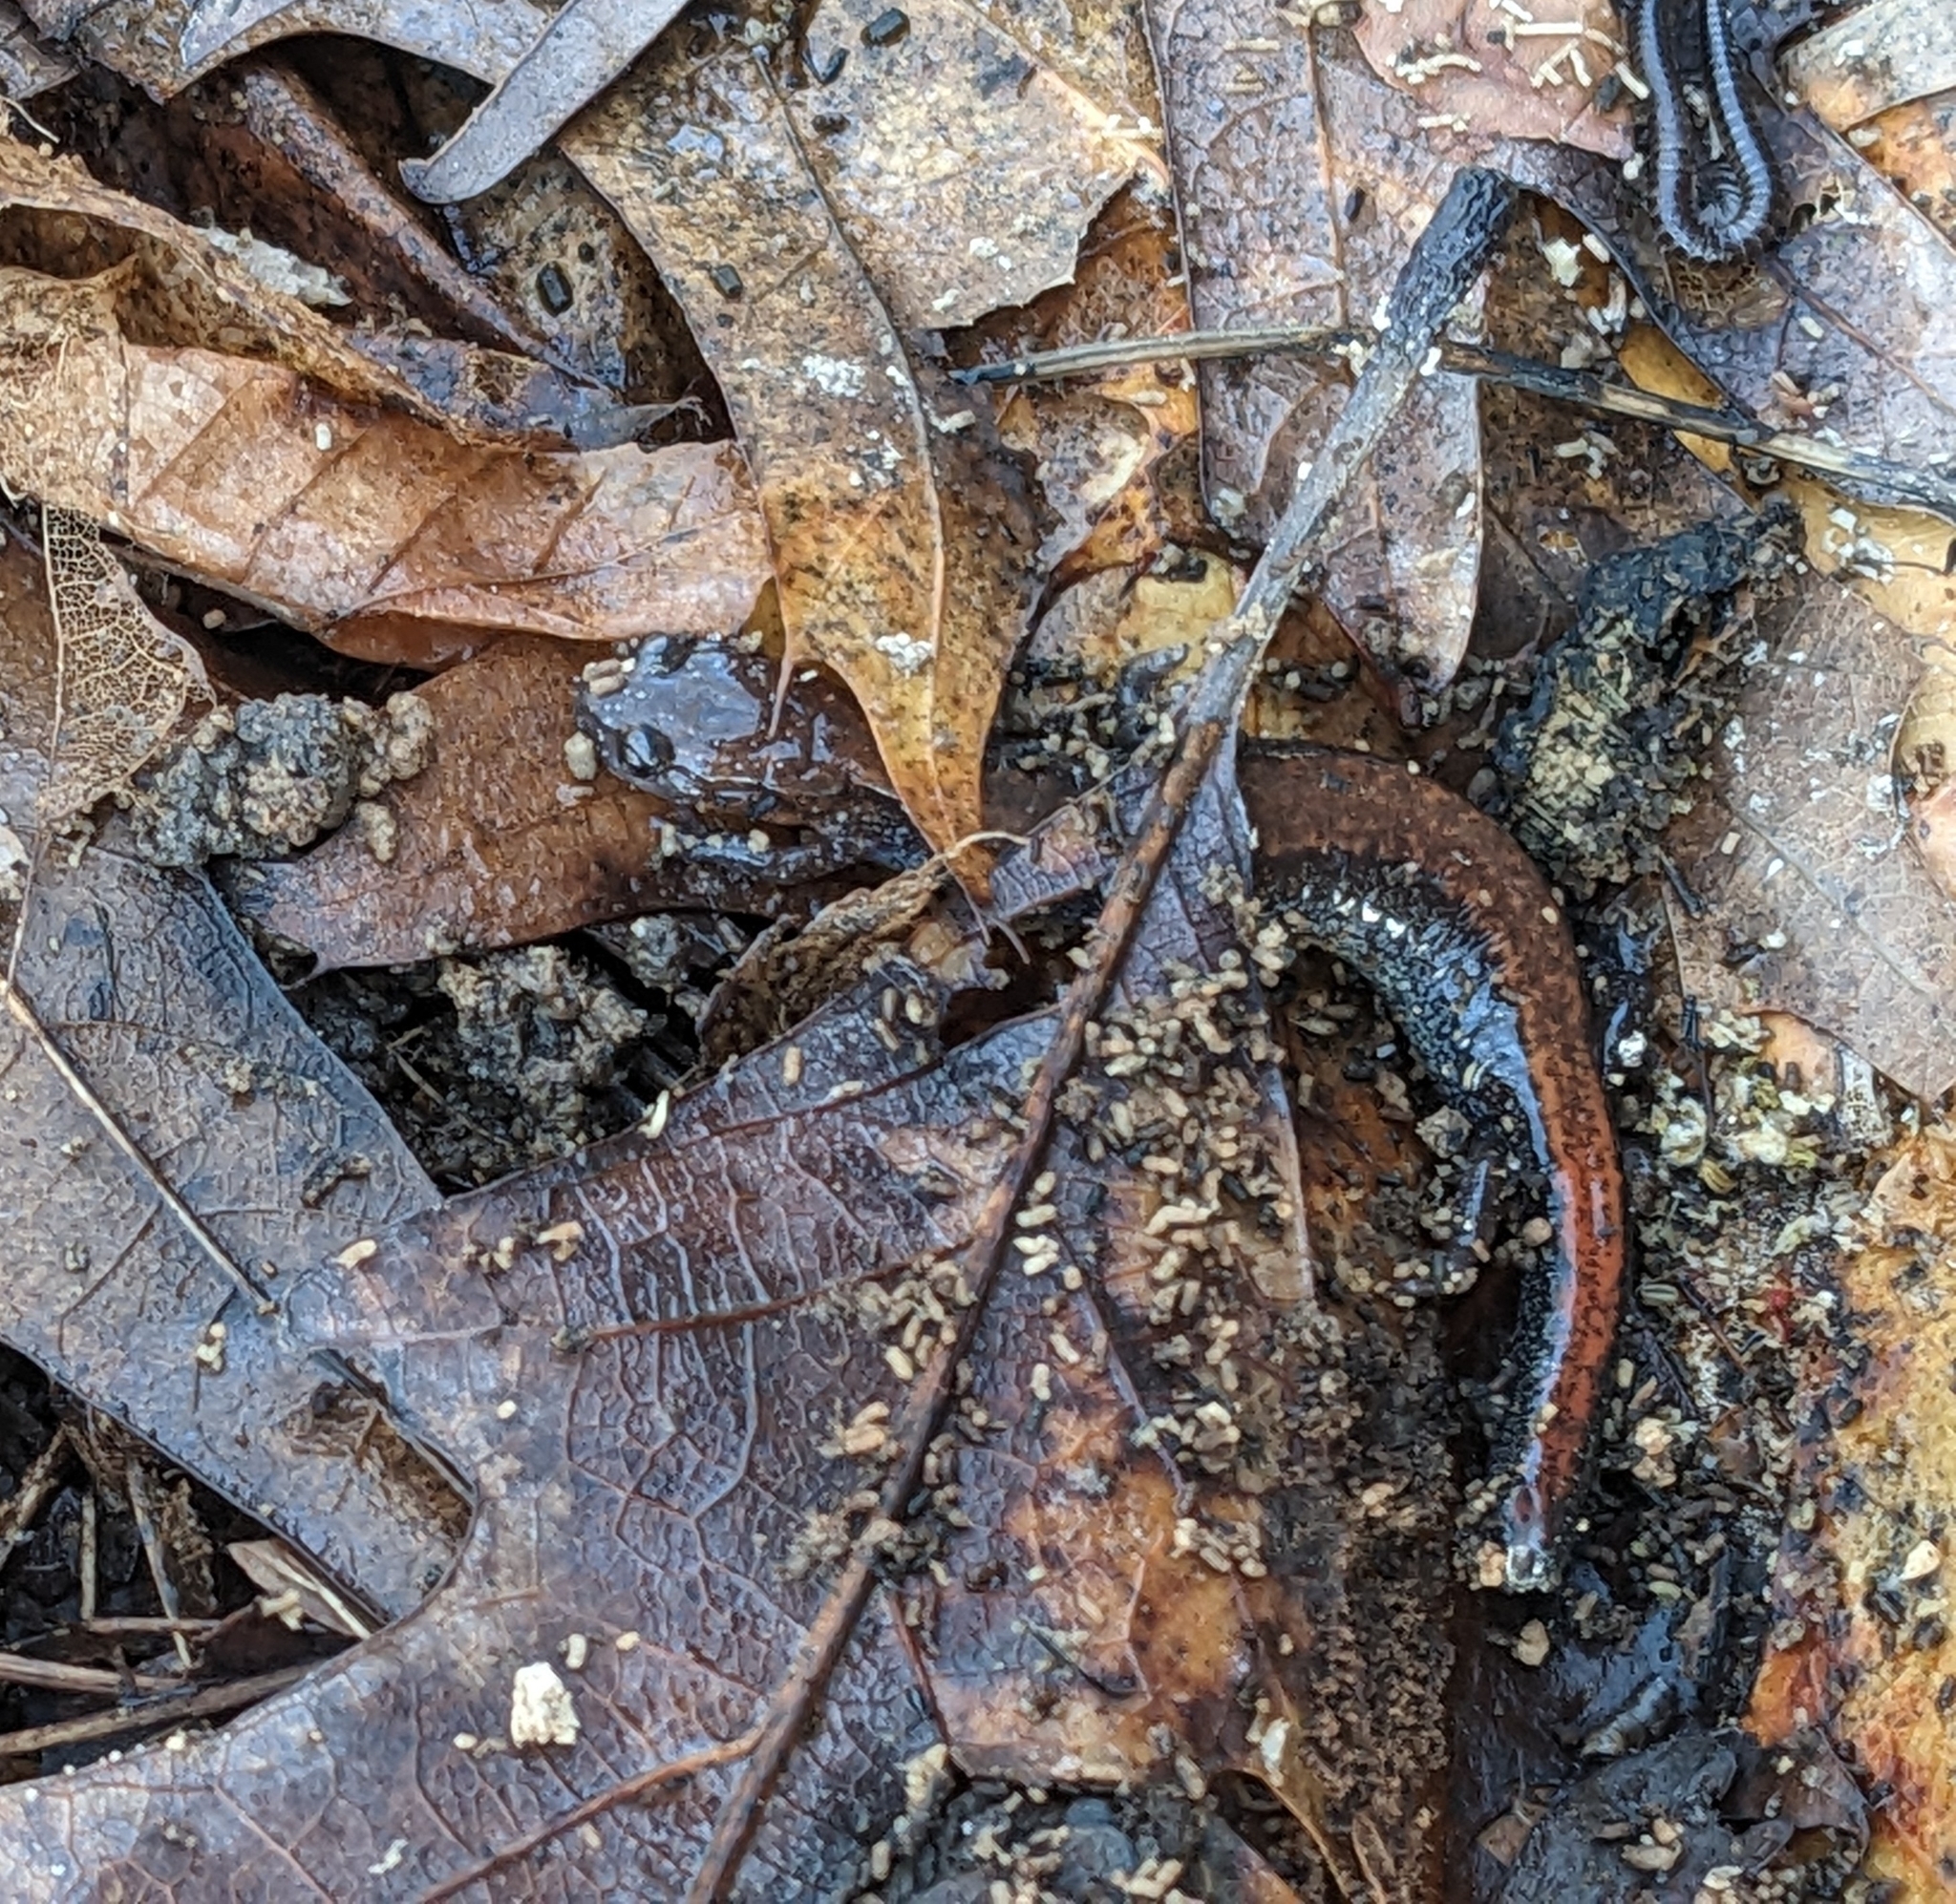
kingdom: Animalia
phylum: Chordata
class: Amphibia
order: Caudata
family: Plethodontidae
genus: Plethodon
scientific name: Plethodon cinereus
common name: Redback salamander
